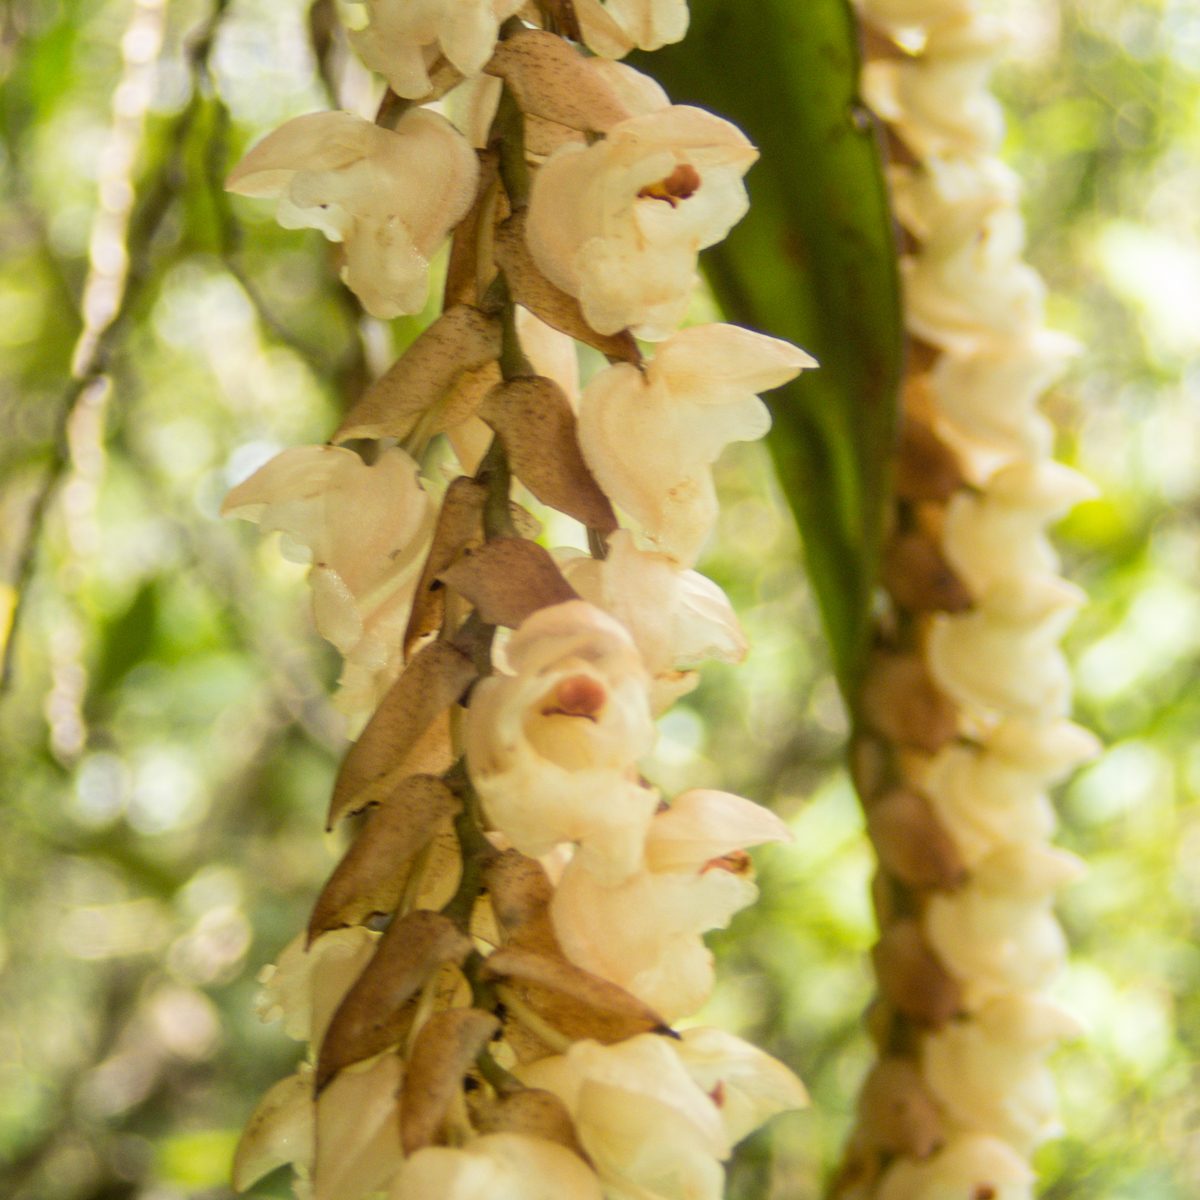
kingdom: Plantae
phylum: Tracheophyta
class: Liliopsida
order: Asparagales
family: Orchidaceae
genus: Pholidota
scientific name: Pholidota imbricata
